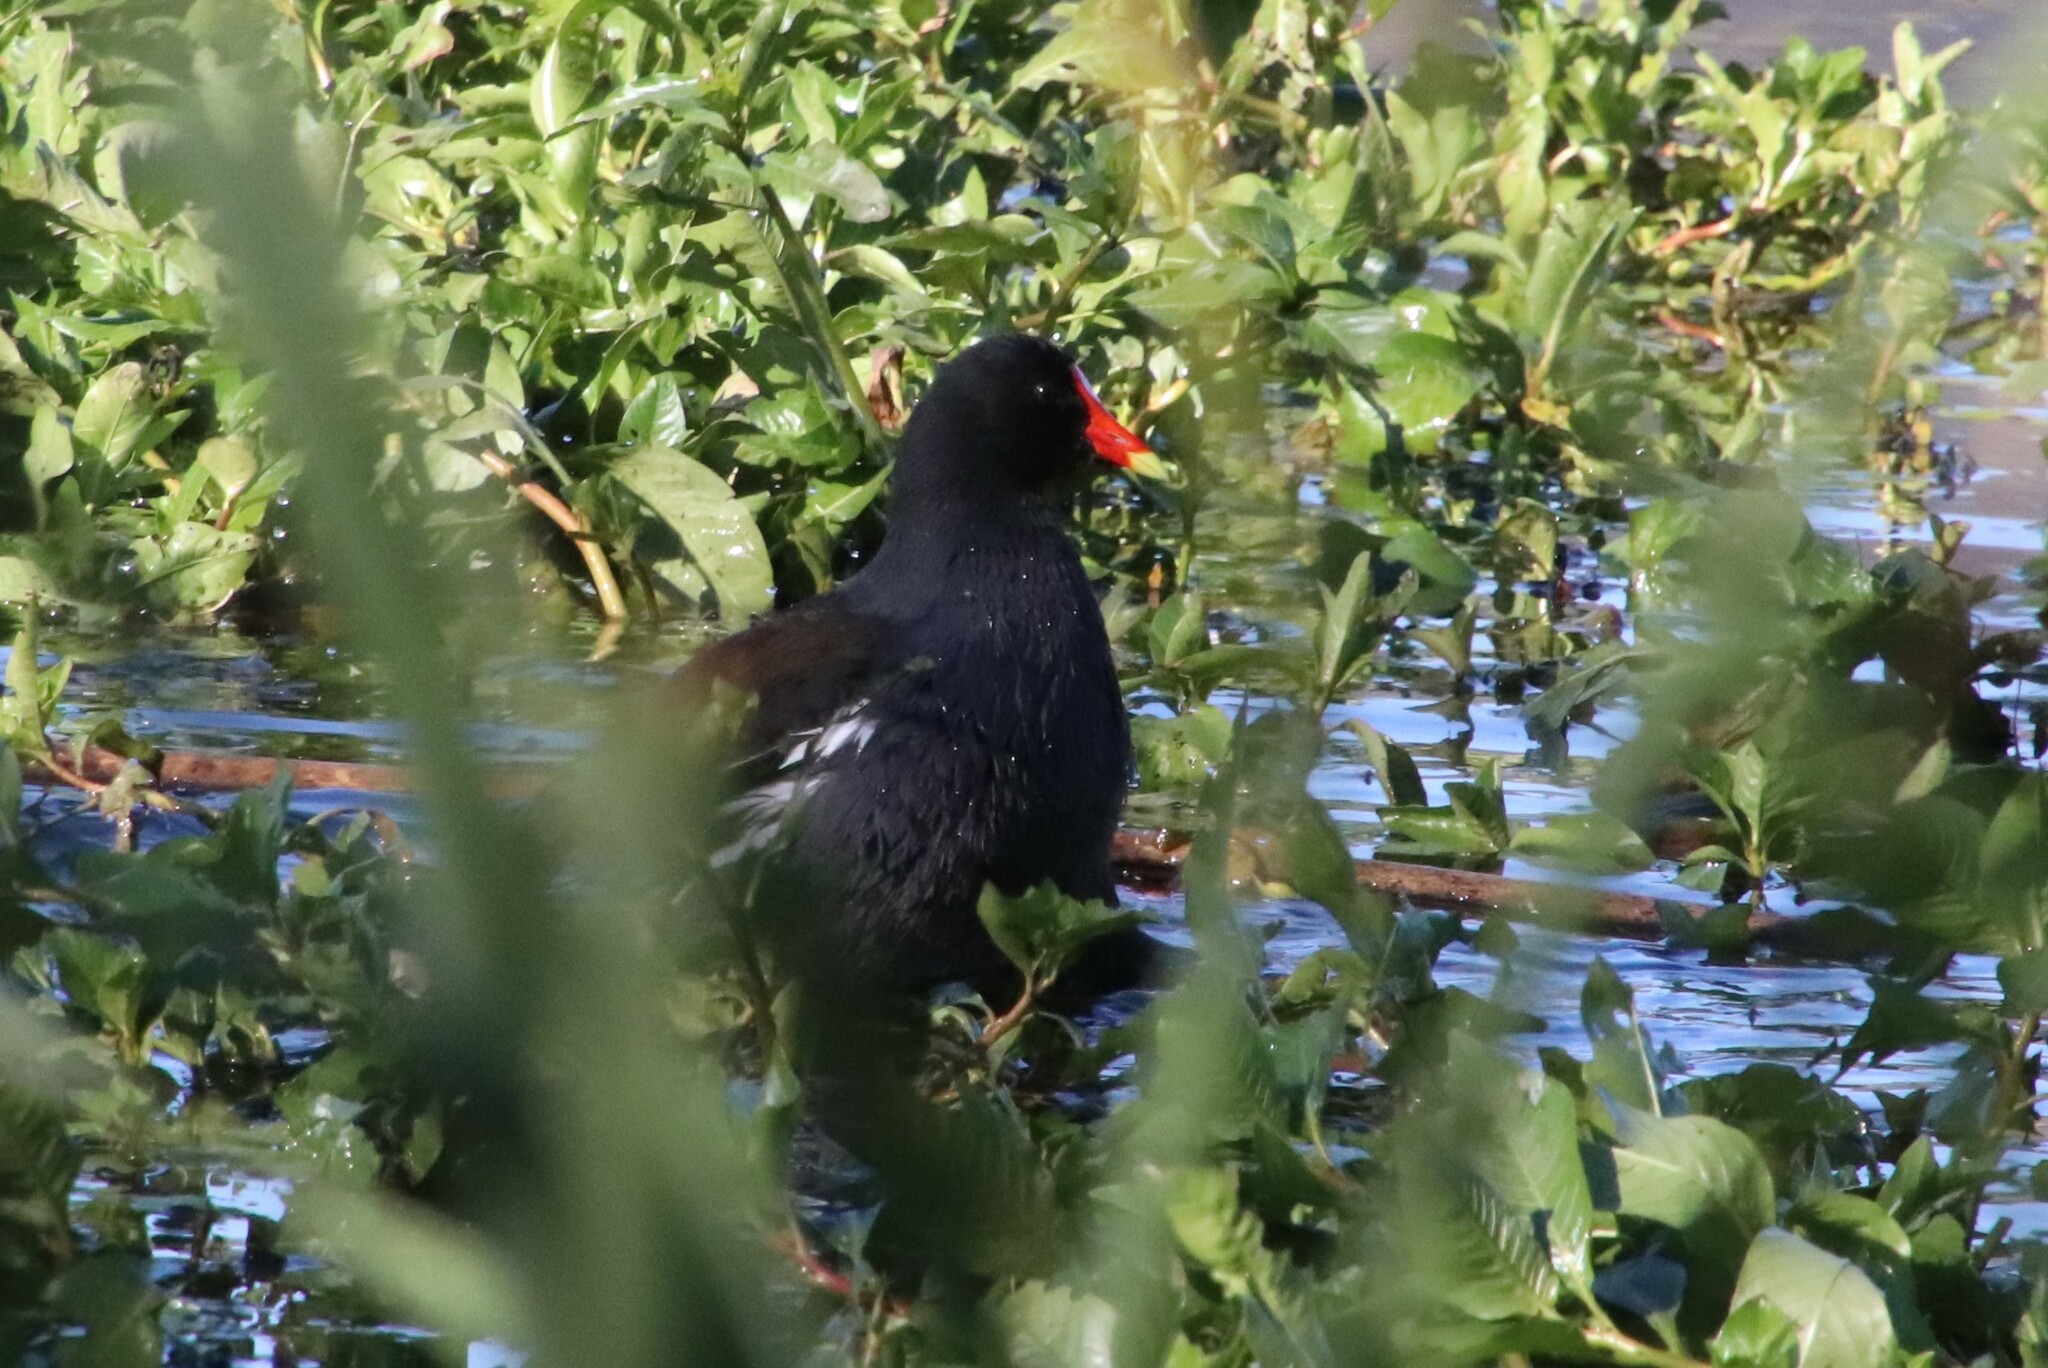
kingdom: Animalia
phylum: Chordata
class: Aves
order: Gruiformes
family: Rallidae
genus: Gallinula
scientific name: Gallinula chloropus
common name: Common moorhen
